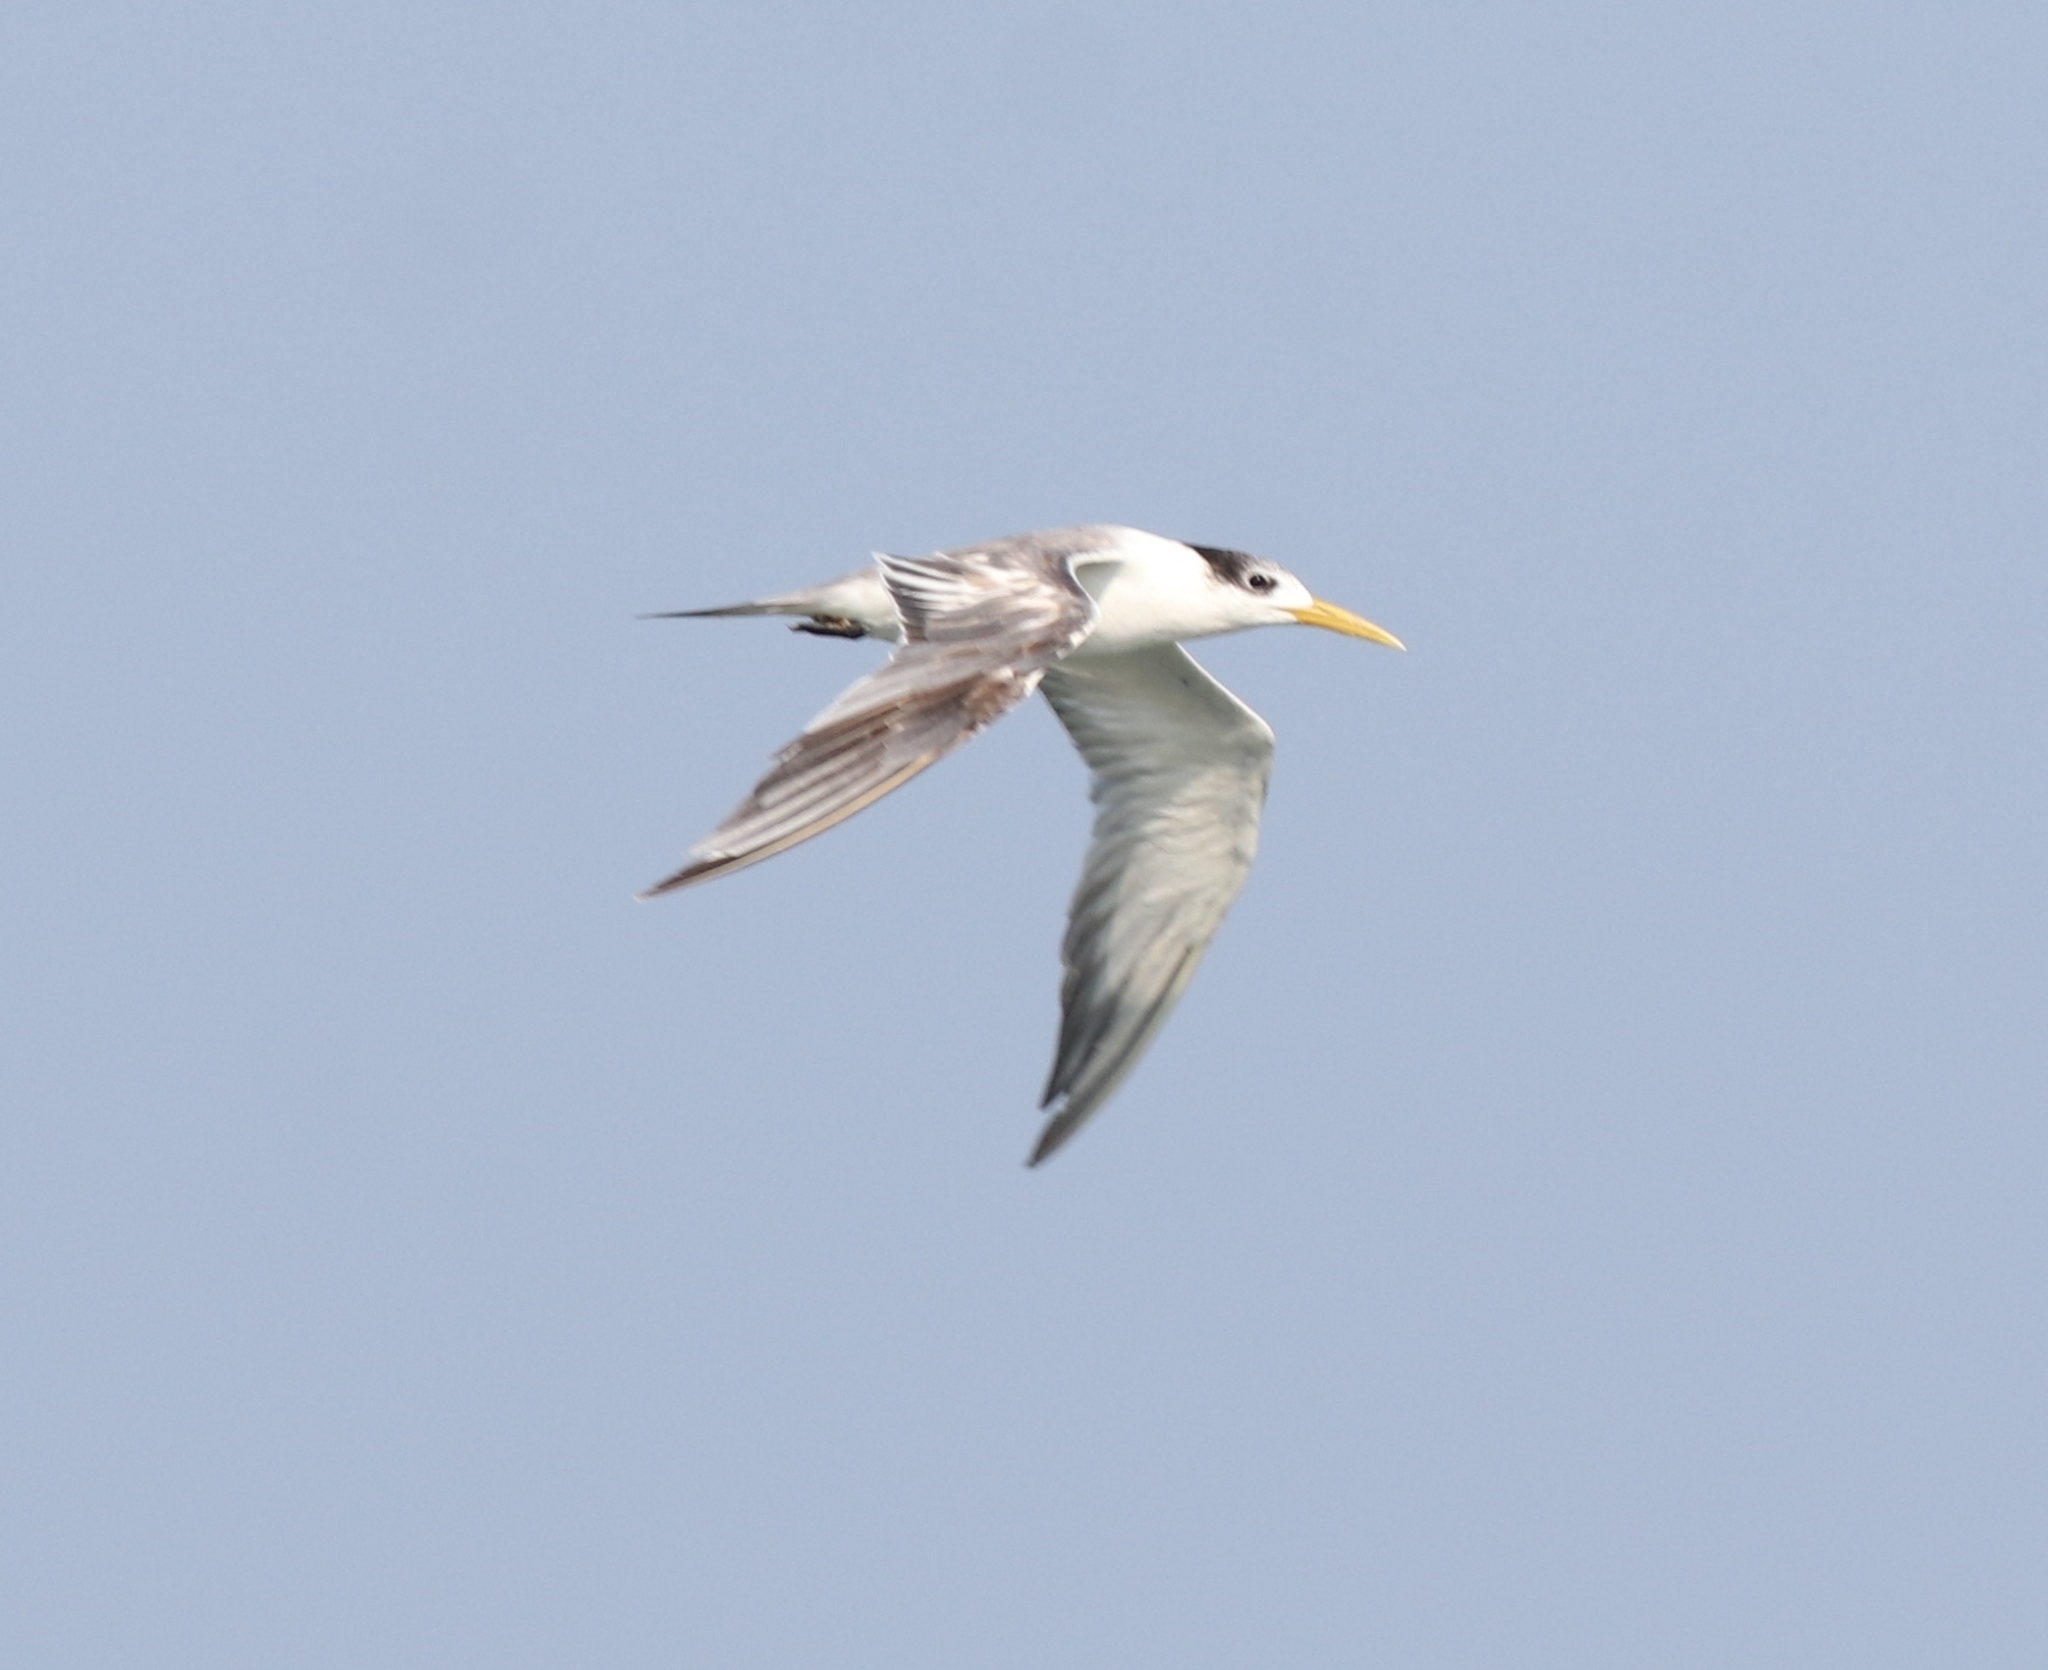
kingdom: Animalia
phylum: Chordata
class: Aves
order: Charadriiformes
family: Laridae
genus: Thalasseus
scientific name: Thalasseus bergii
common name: Greater crested tern
